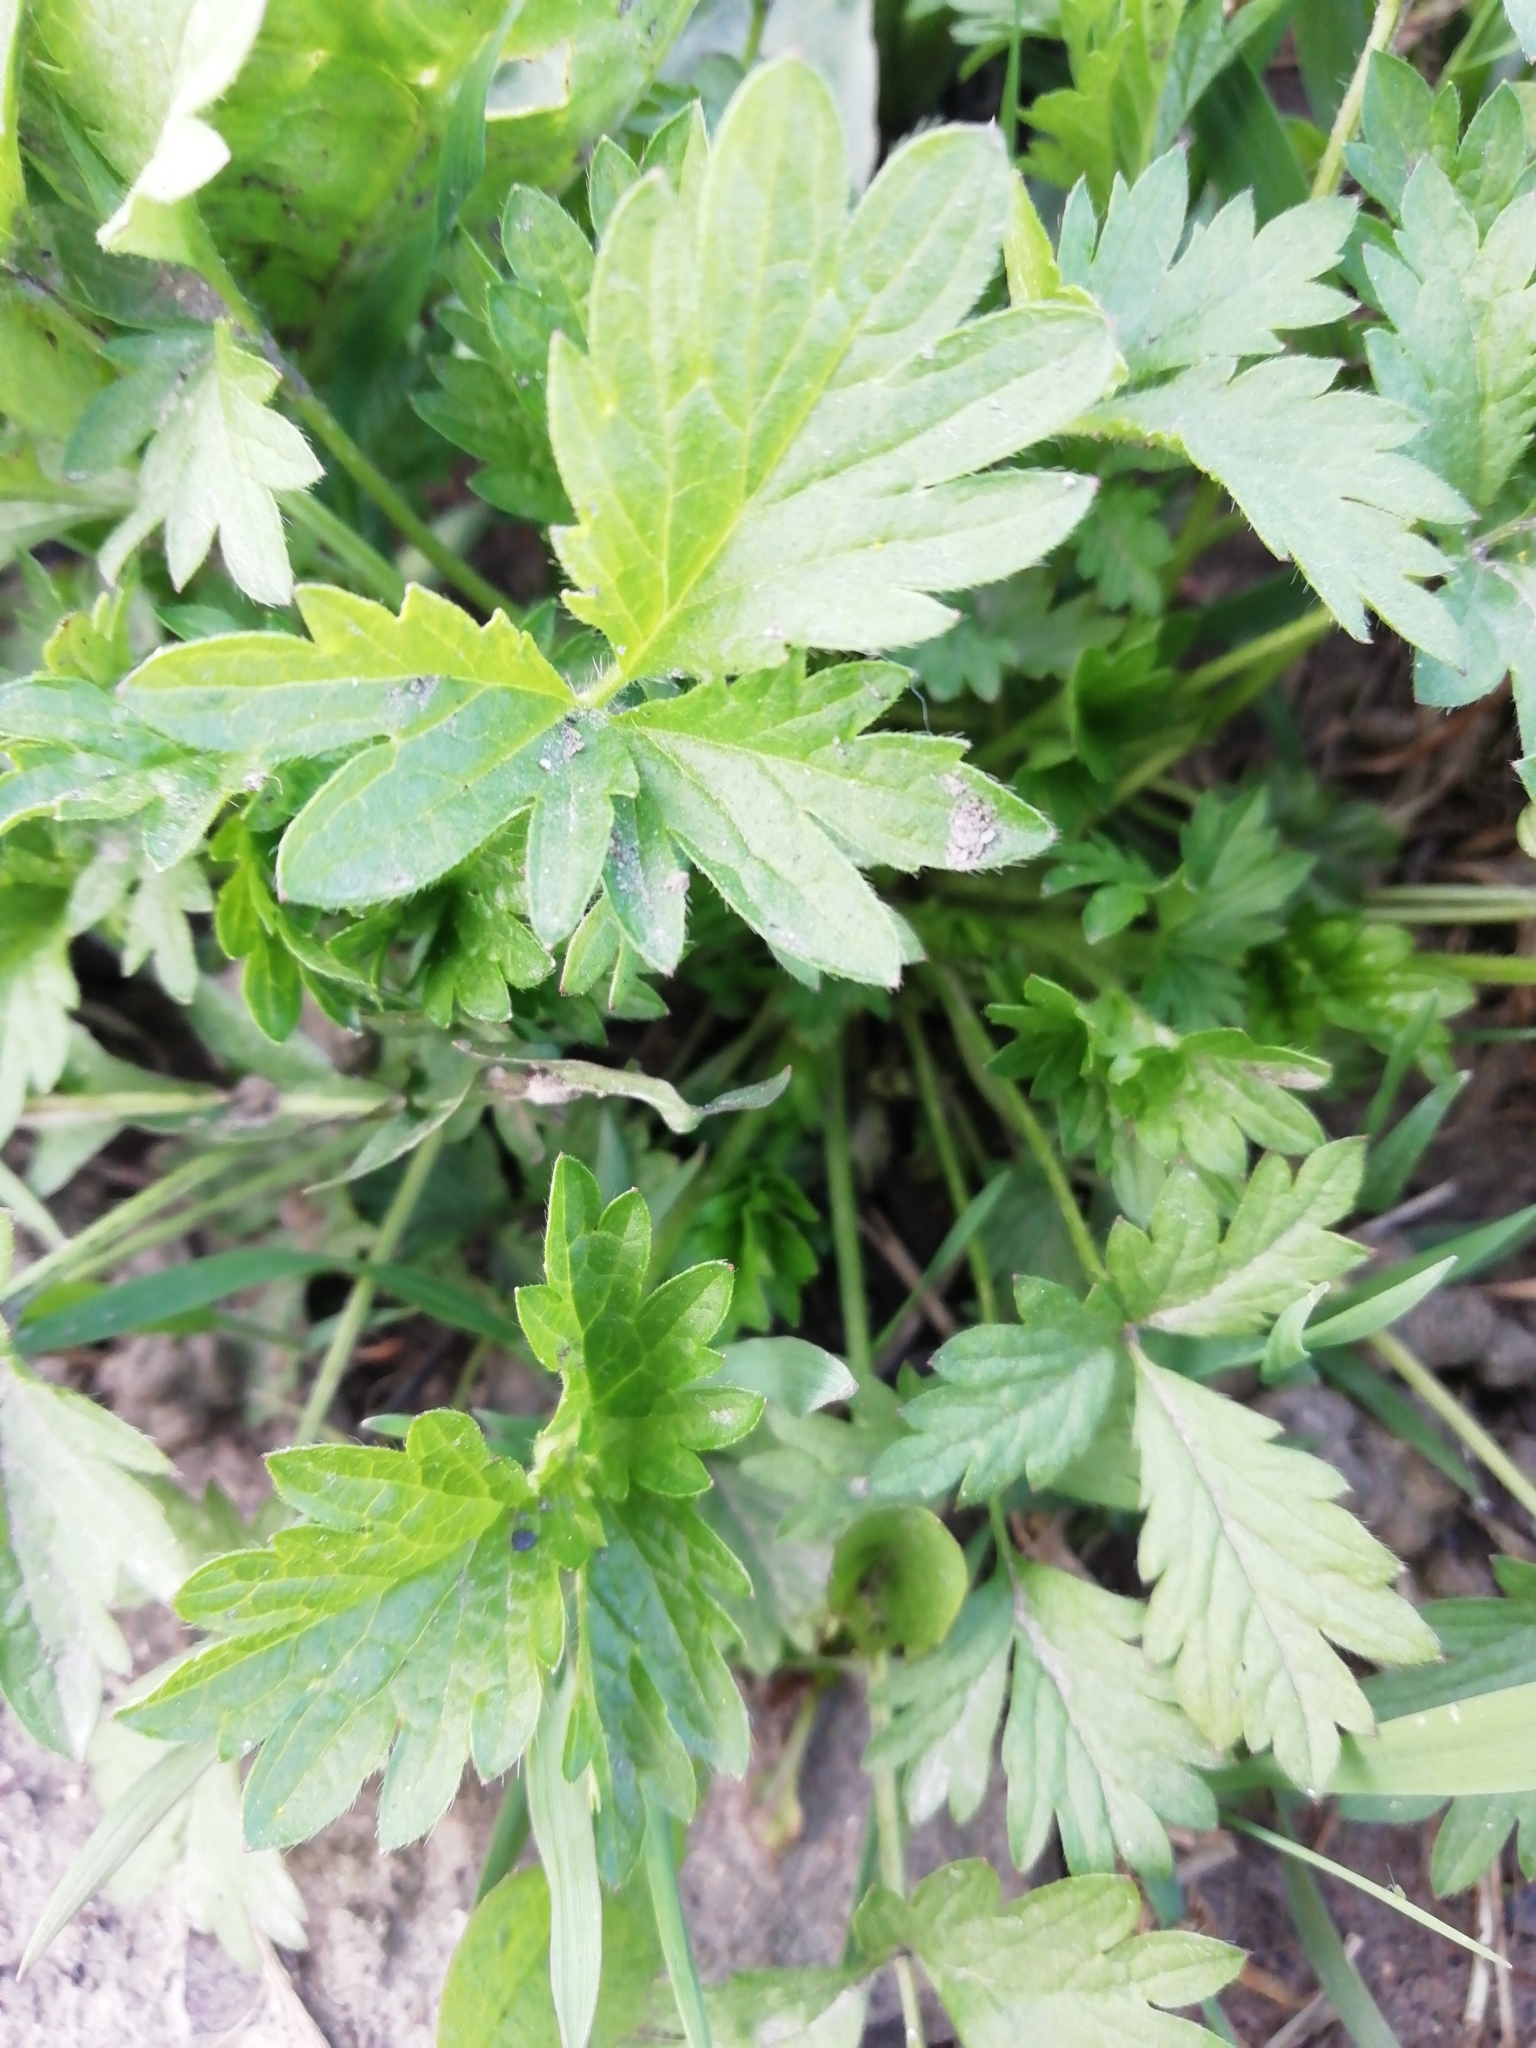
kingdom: Plantae
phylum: Tracheophyta
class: Magnoliopsida
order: Rosales
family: Rosaceae
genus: Potentilla
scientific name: Potentilla norvegica
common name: Ternate-leaved cinquefoil
